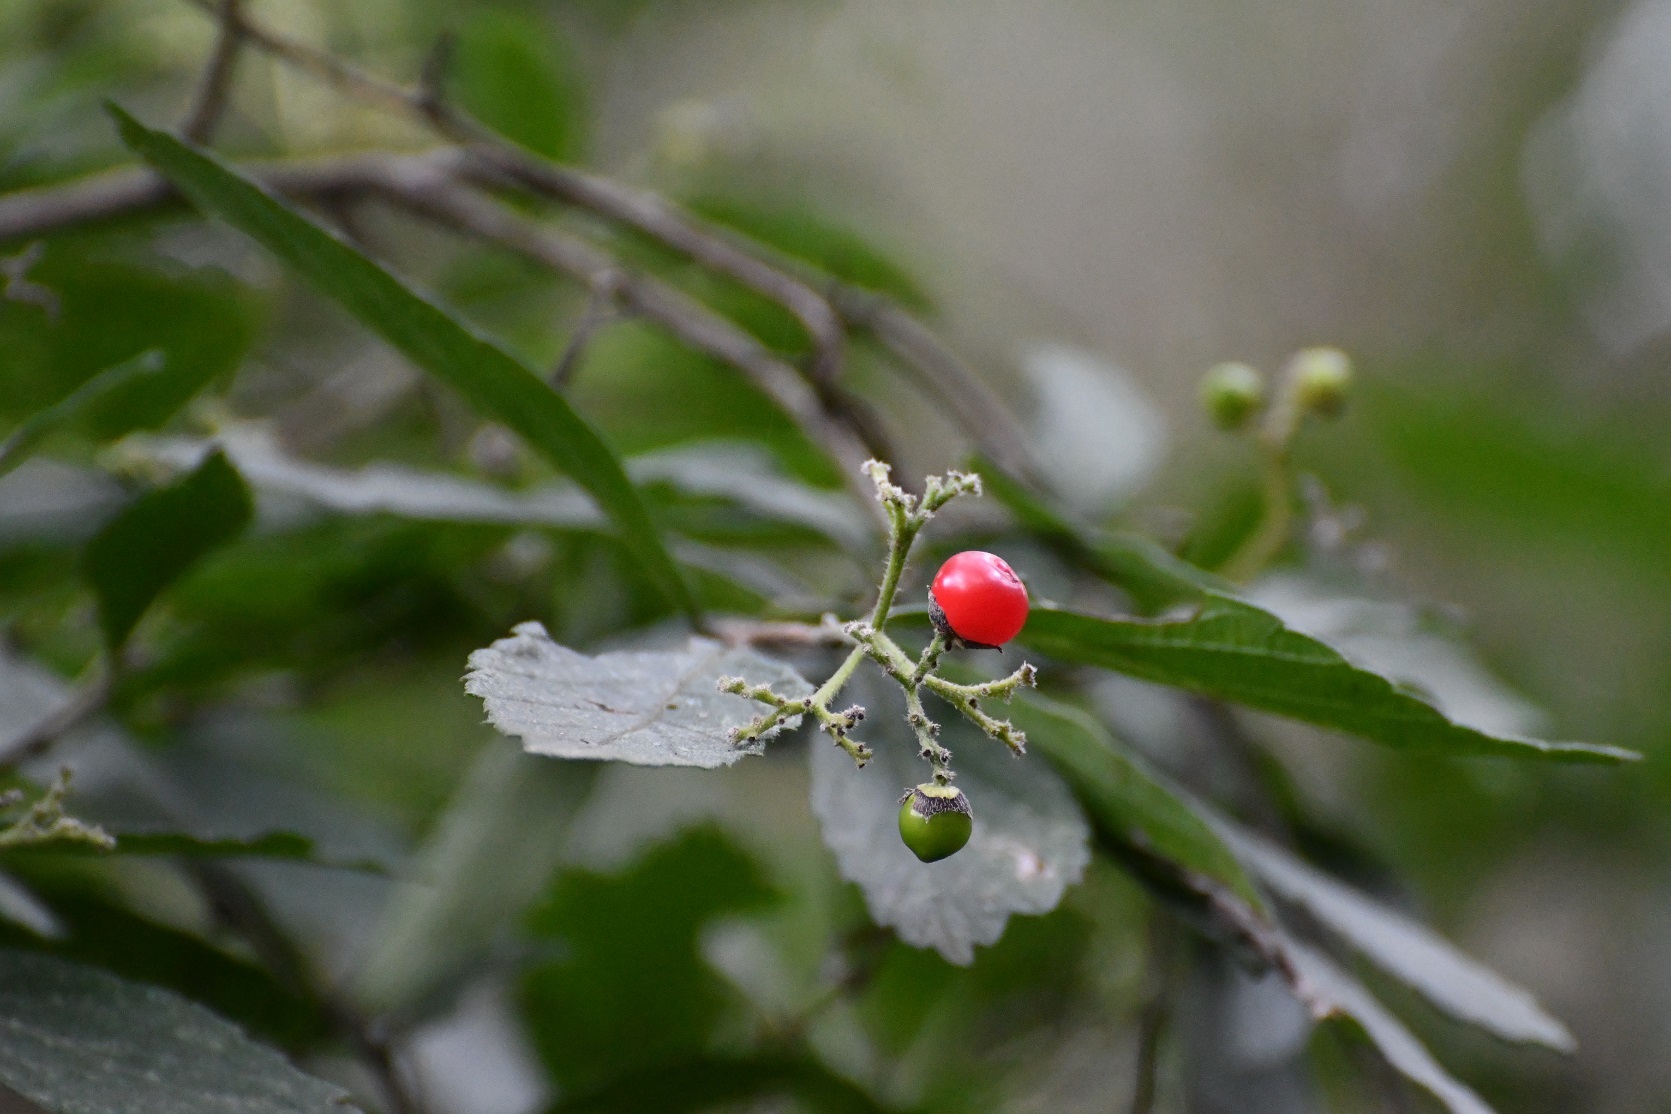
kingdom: Plantae
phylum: Tracheophyta
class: Magnoliopsida
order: Boraginales
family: Cordiaceae
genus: Varronia
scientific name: Varronia foliosa
